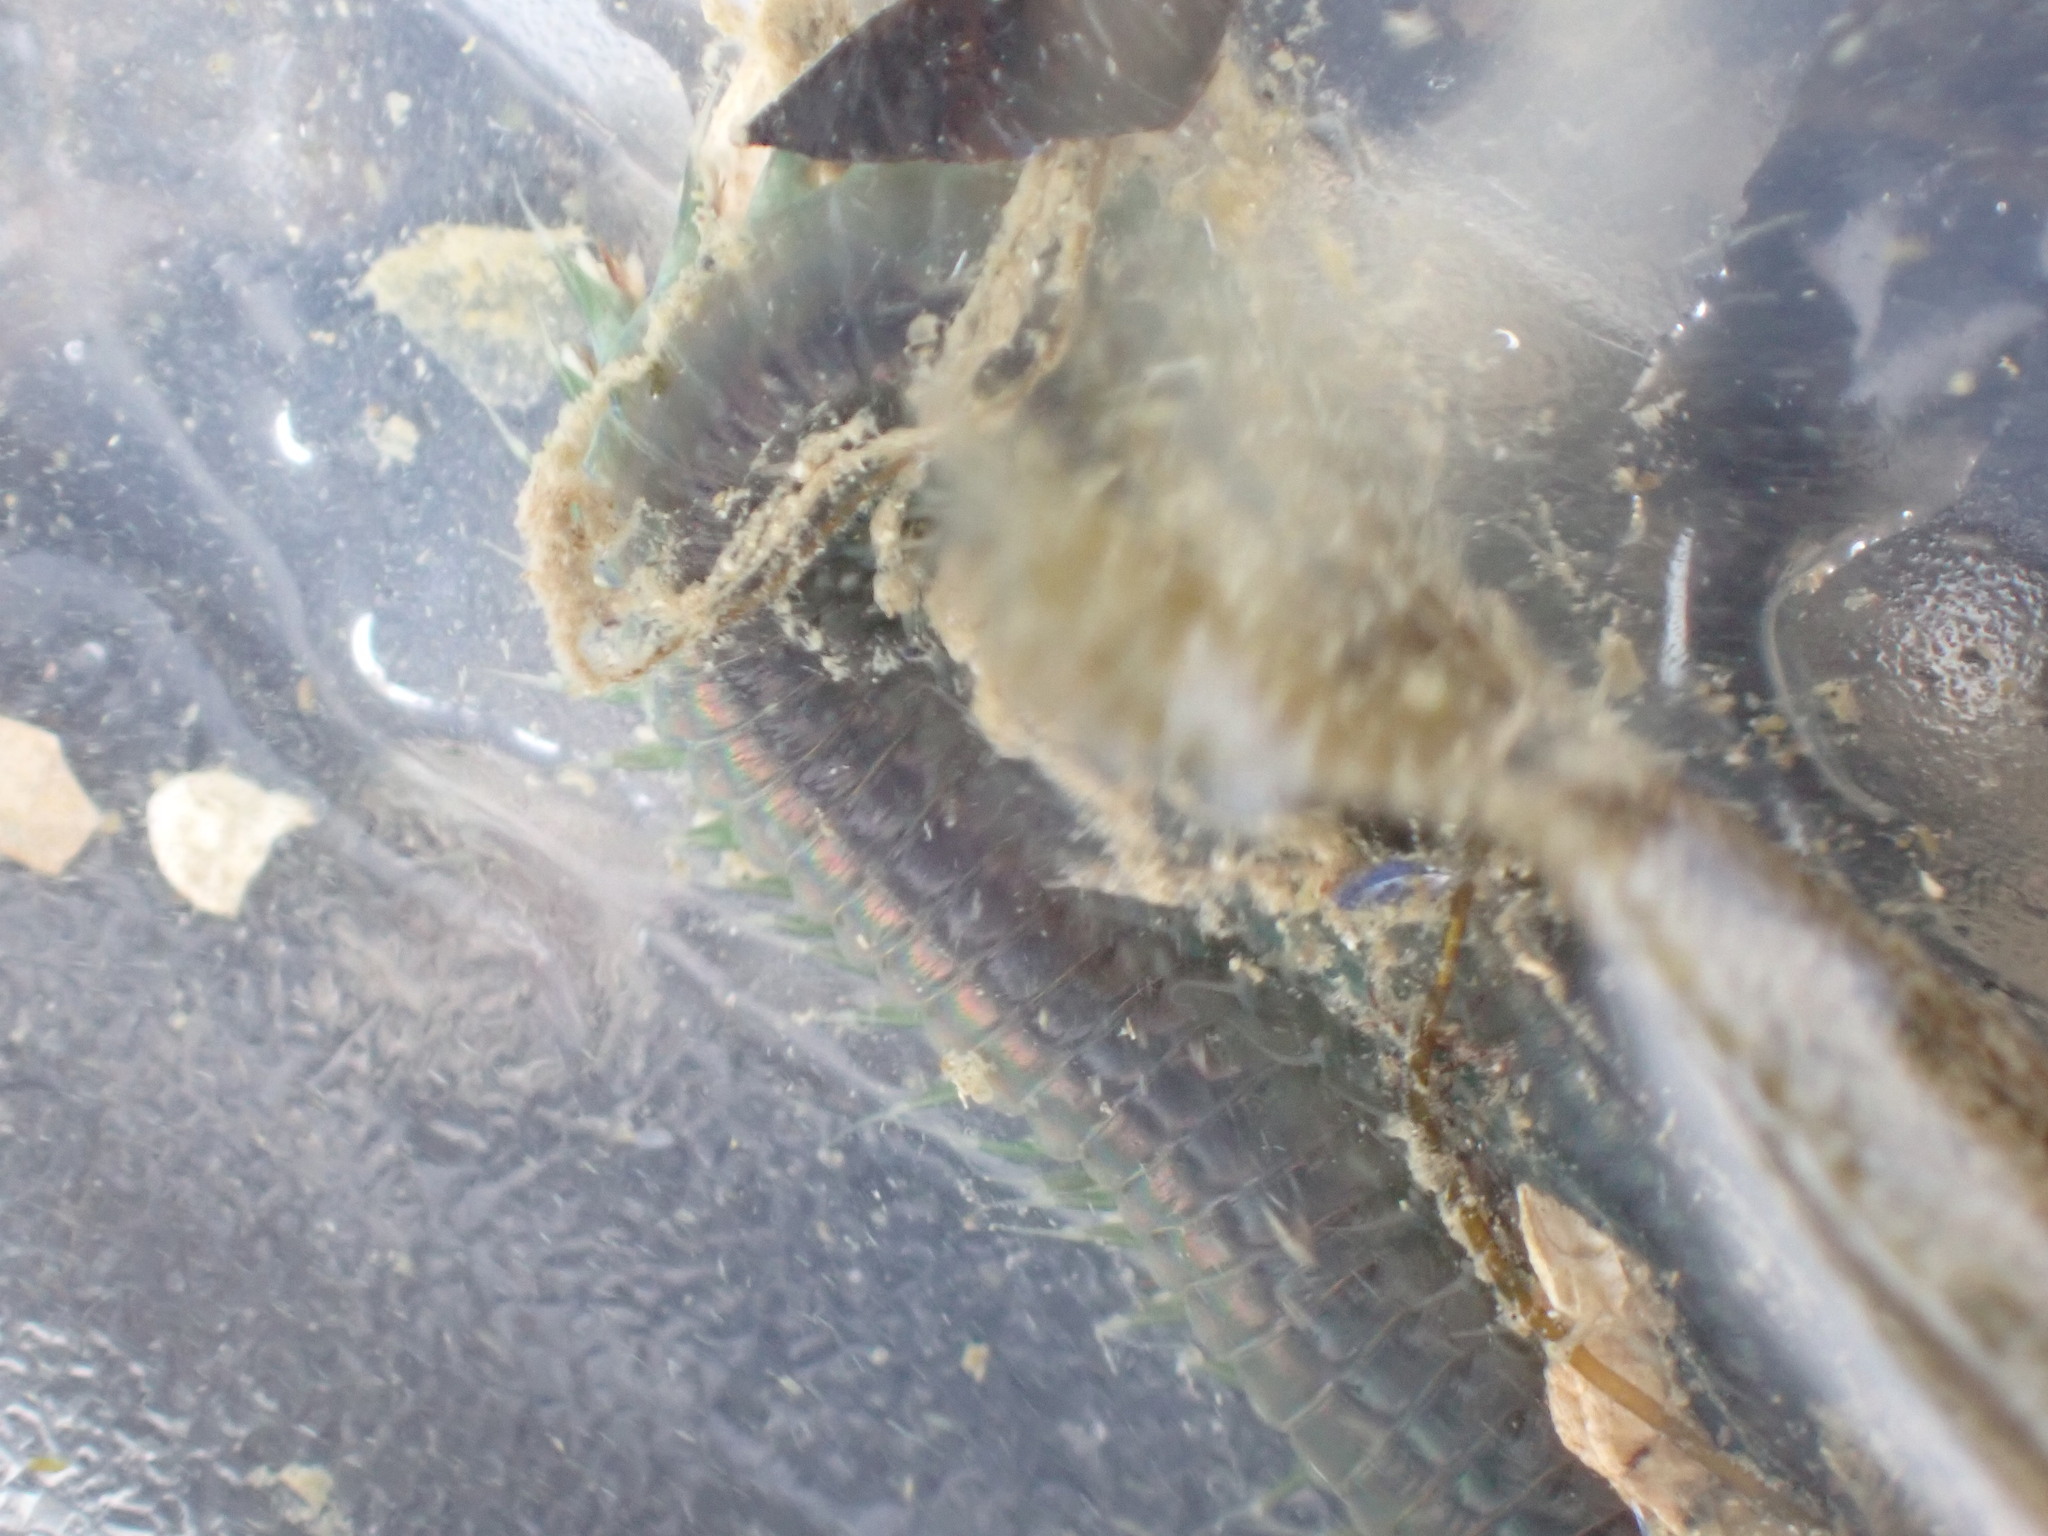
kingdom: Animalia
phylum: Annelida
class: Polychaeta
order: Phyllodocida
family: Nereididae
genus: Nereis
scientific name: Nereis vexillosa
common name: Mussel worm
